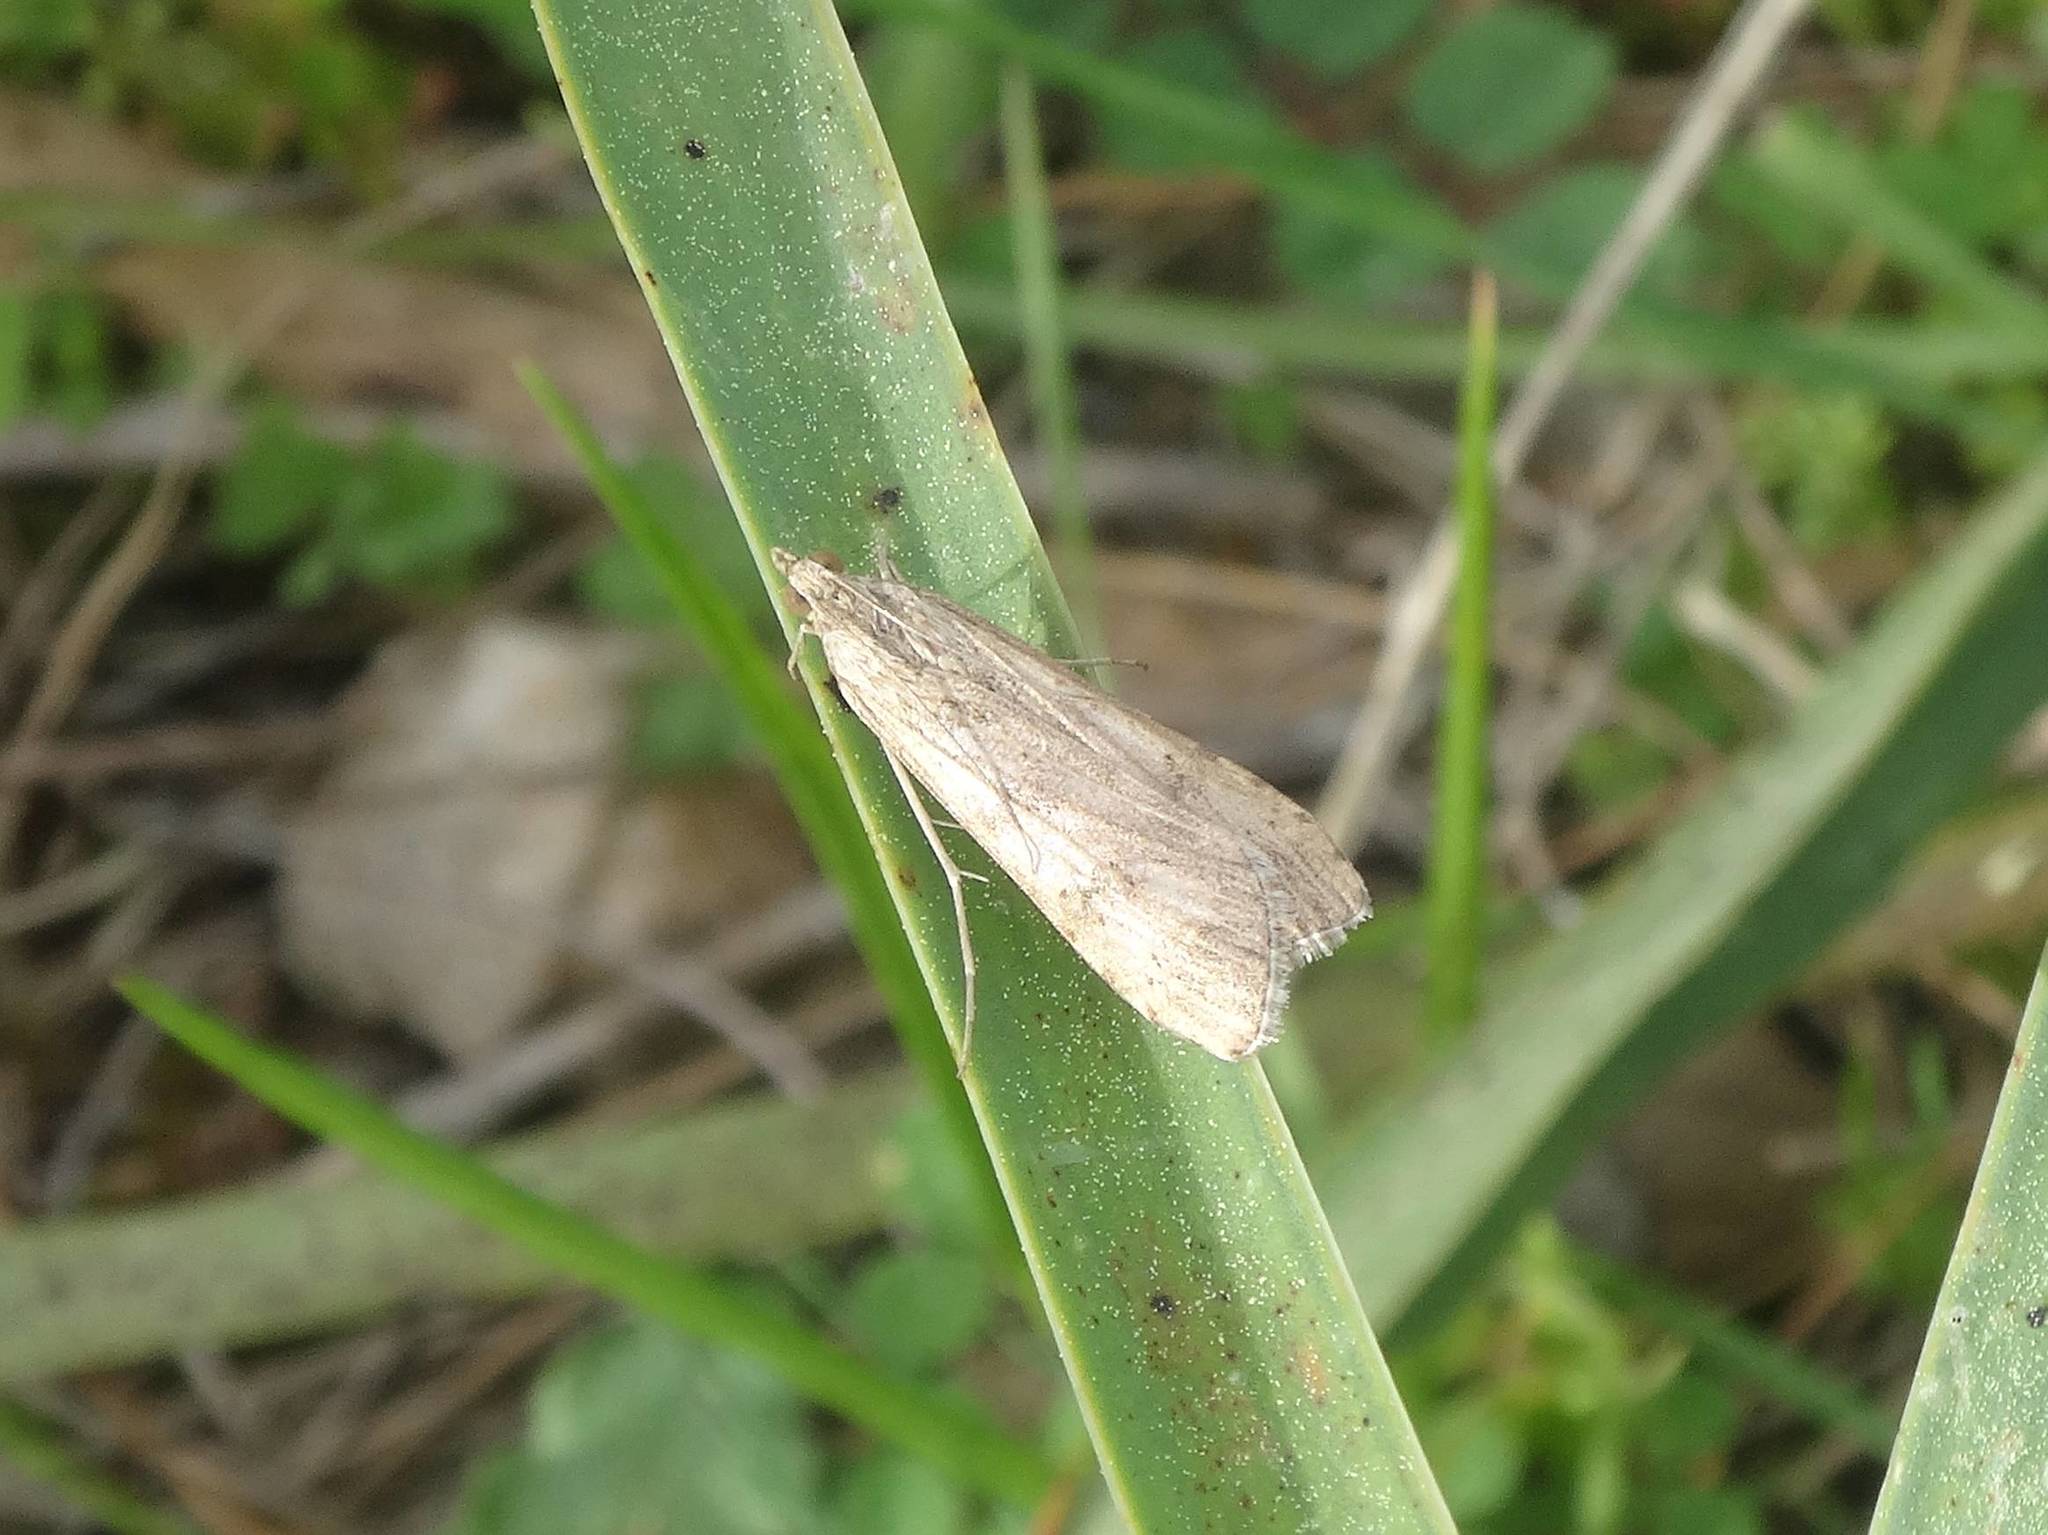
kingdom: Animalia
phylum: Arthropoda
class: Insecta
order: Lepidoptera
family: Crambidae
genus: Nomophila
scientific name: Nomophila noctuella
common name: Rush veneer
